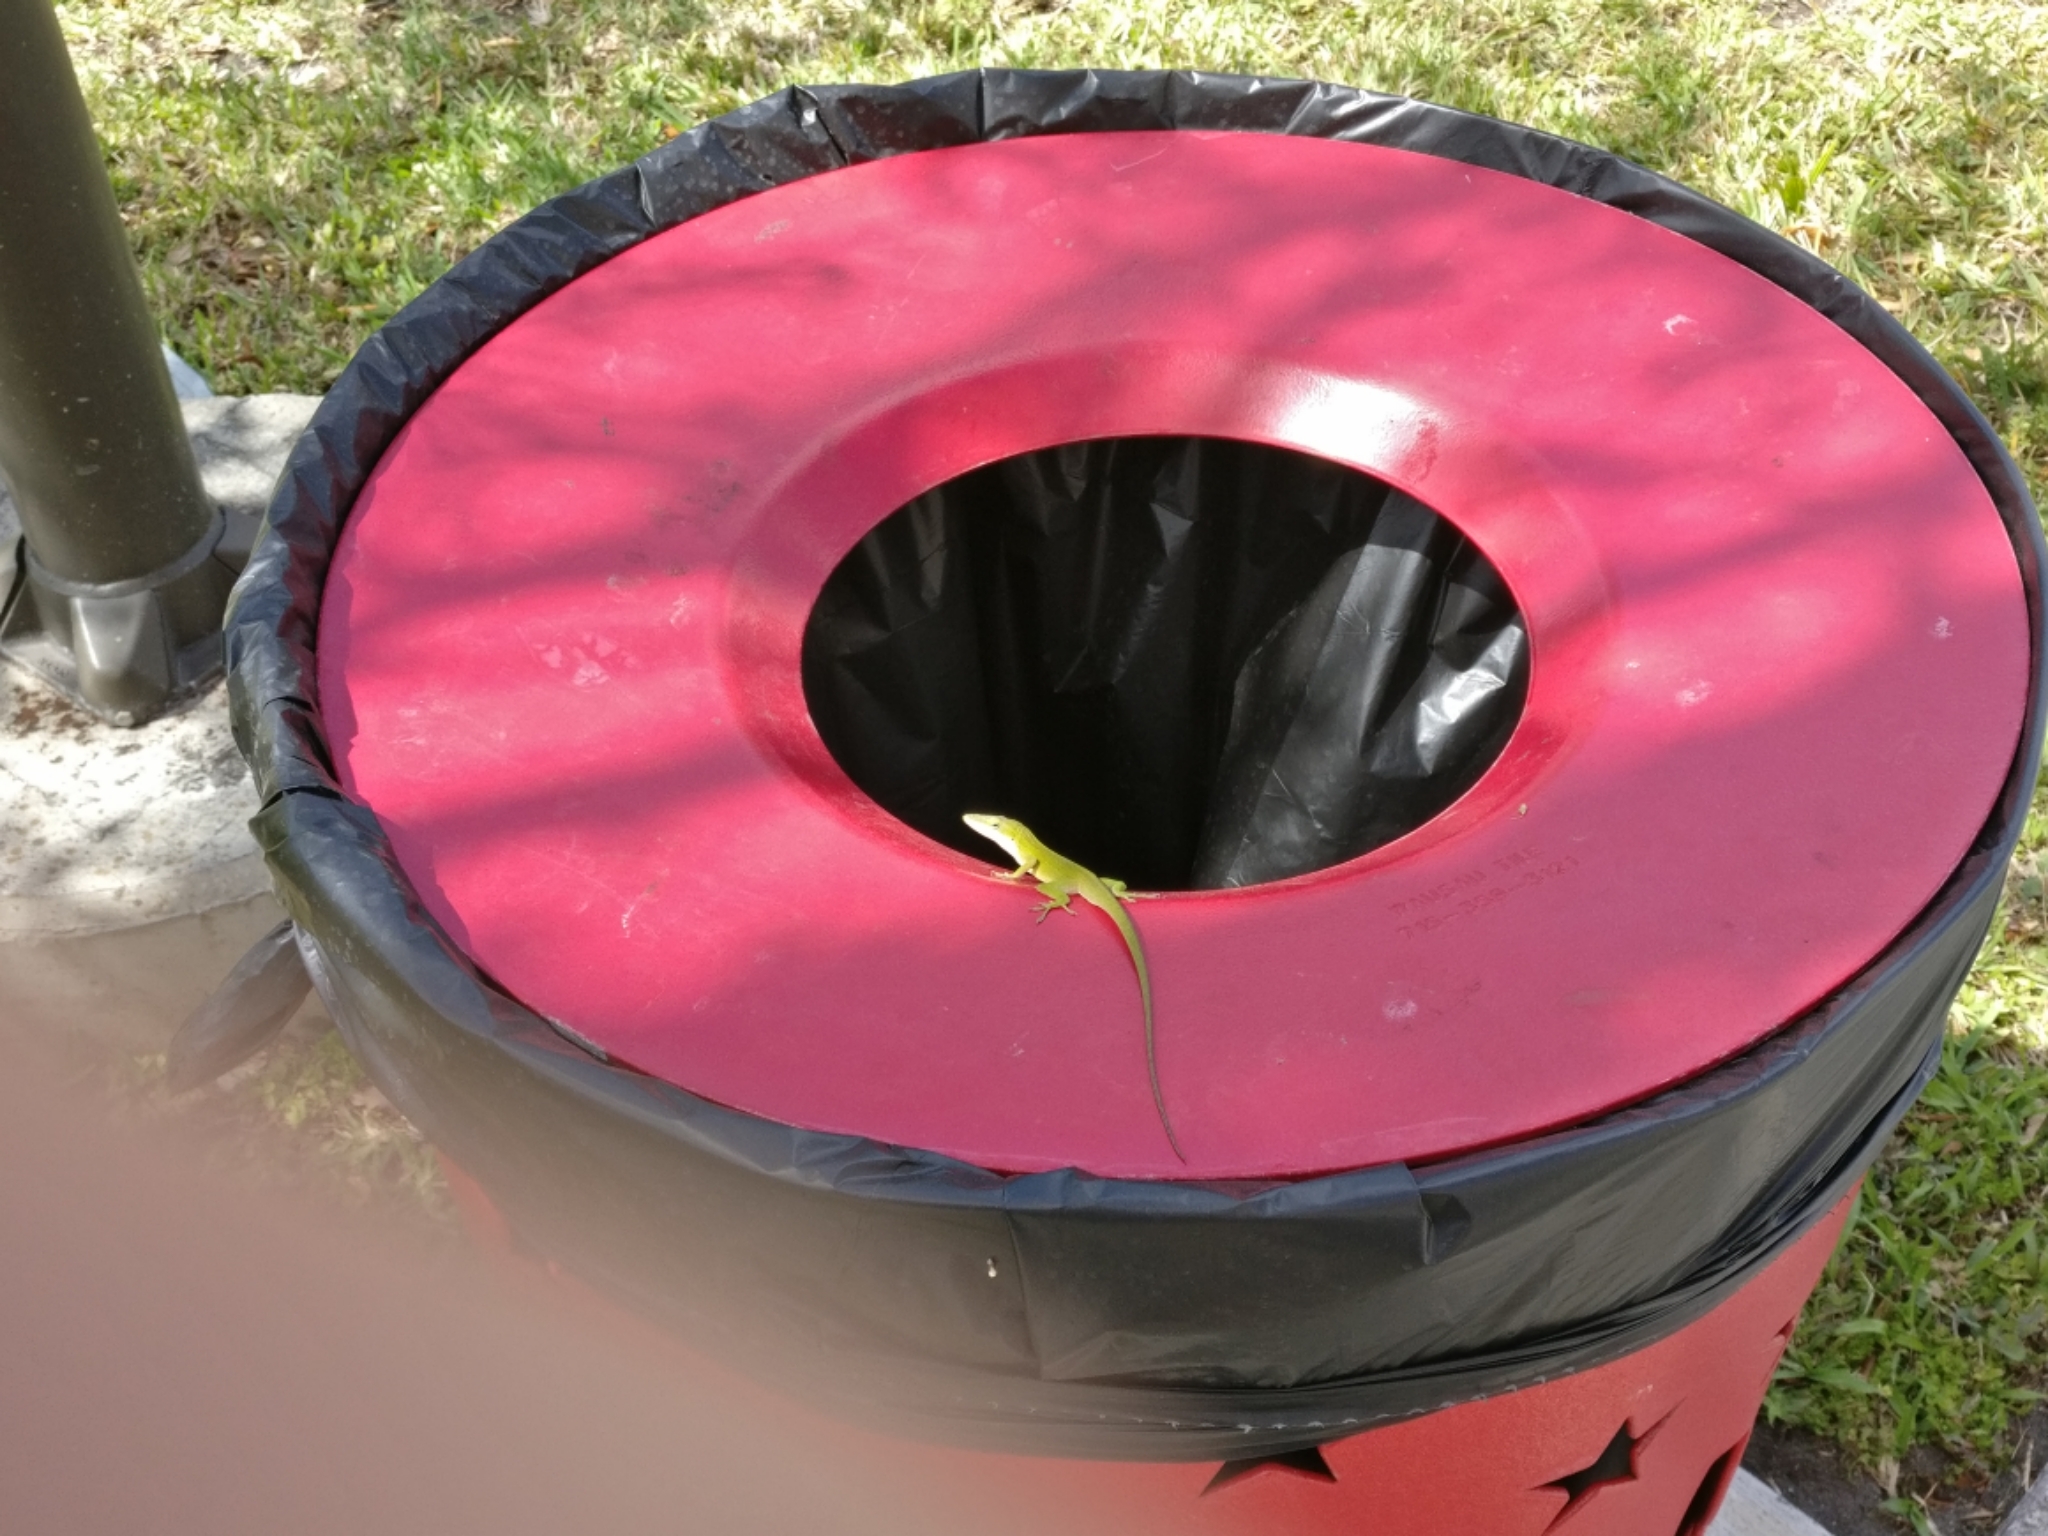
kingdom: Animalia
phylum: Chordata
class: Squamata
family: Dactyloidae
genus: Anolis
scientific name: Anolis carolinensis
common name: Green anole
